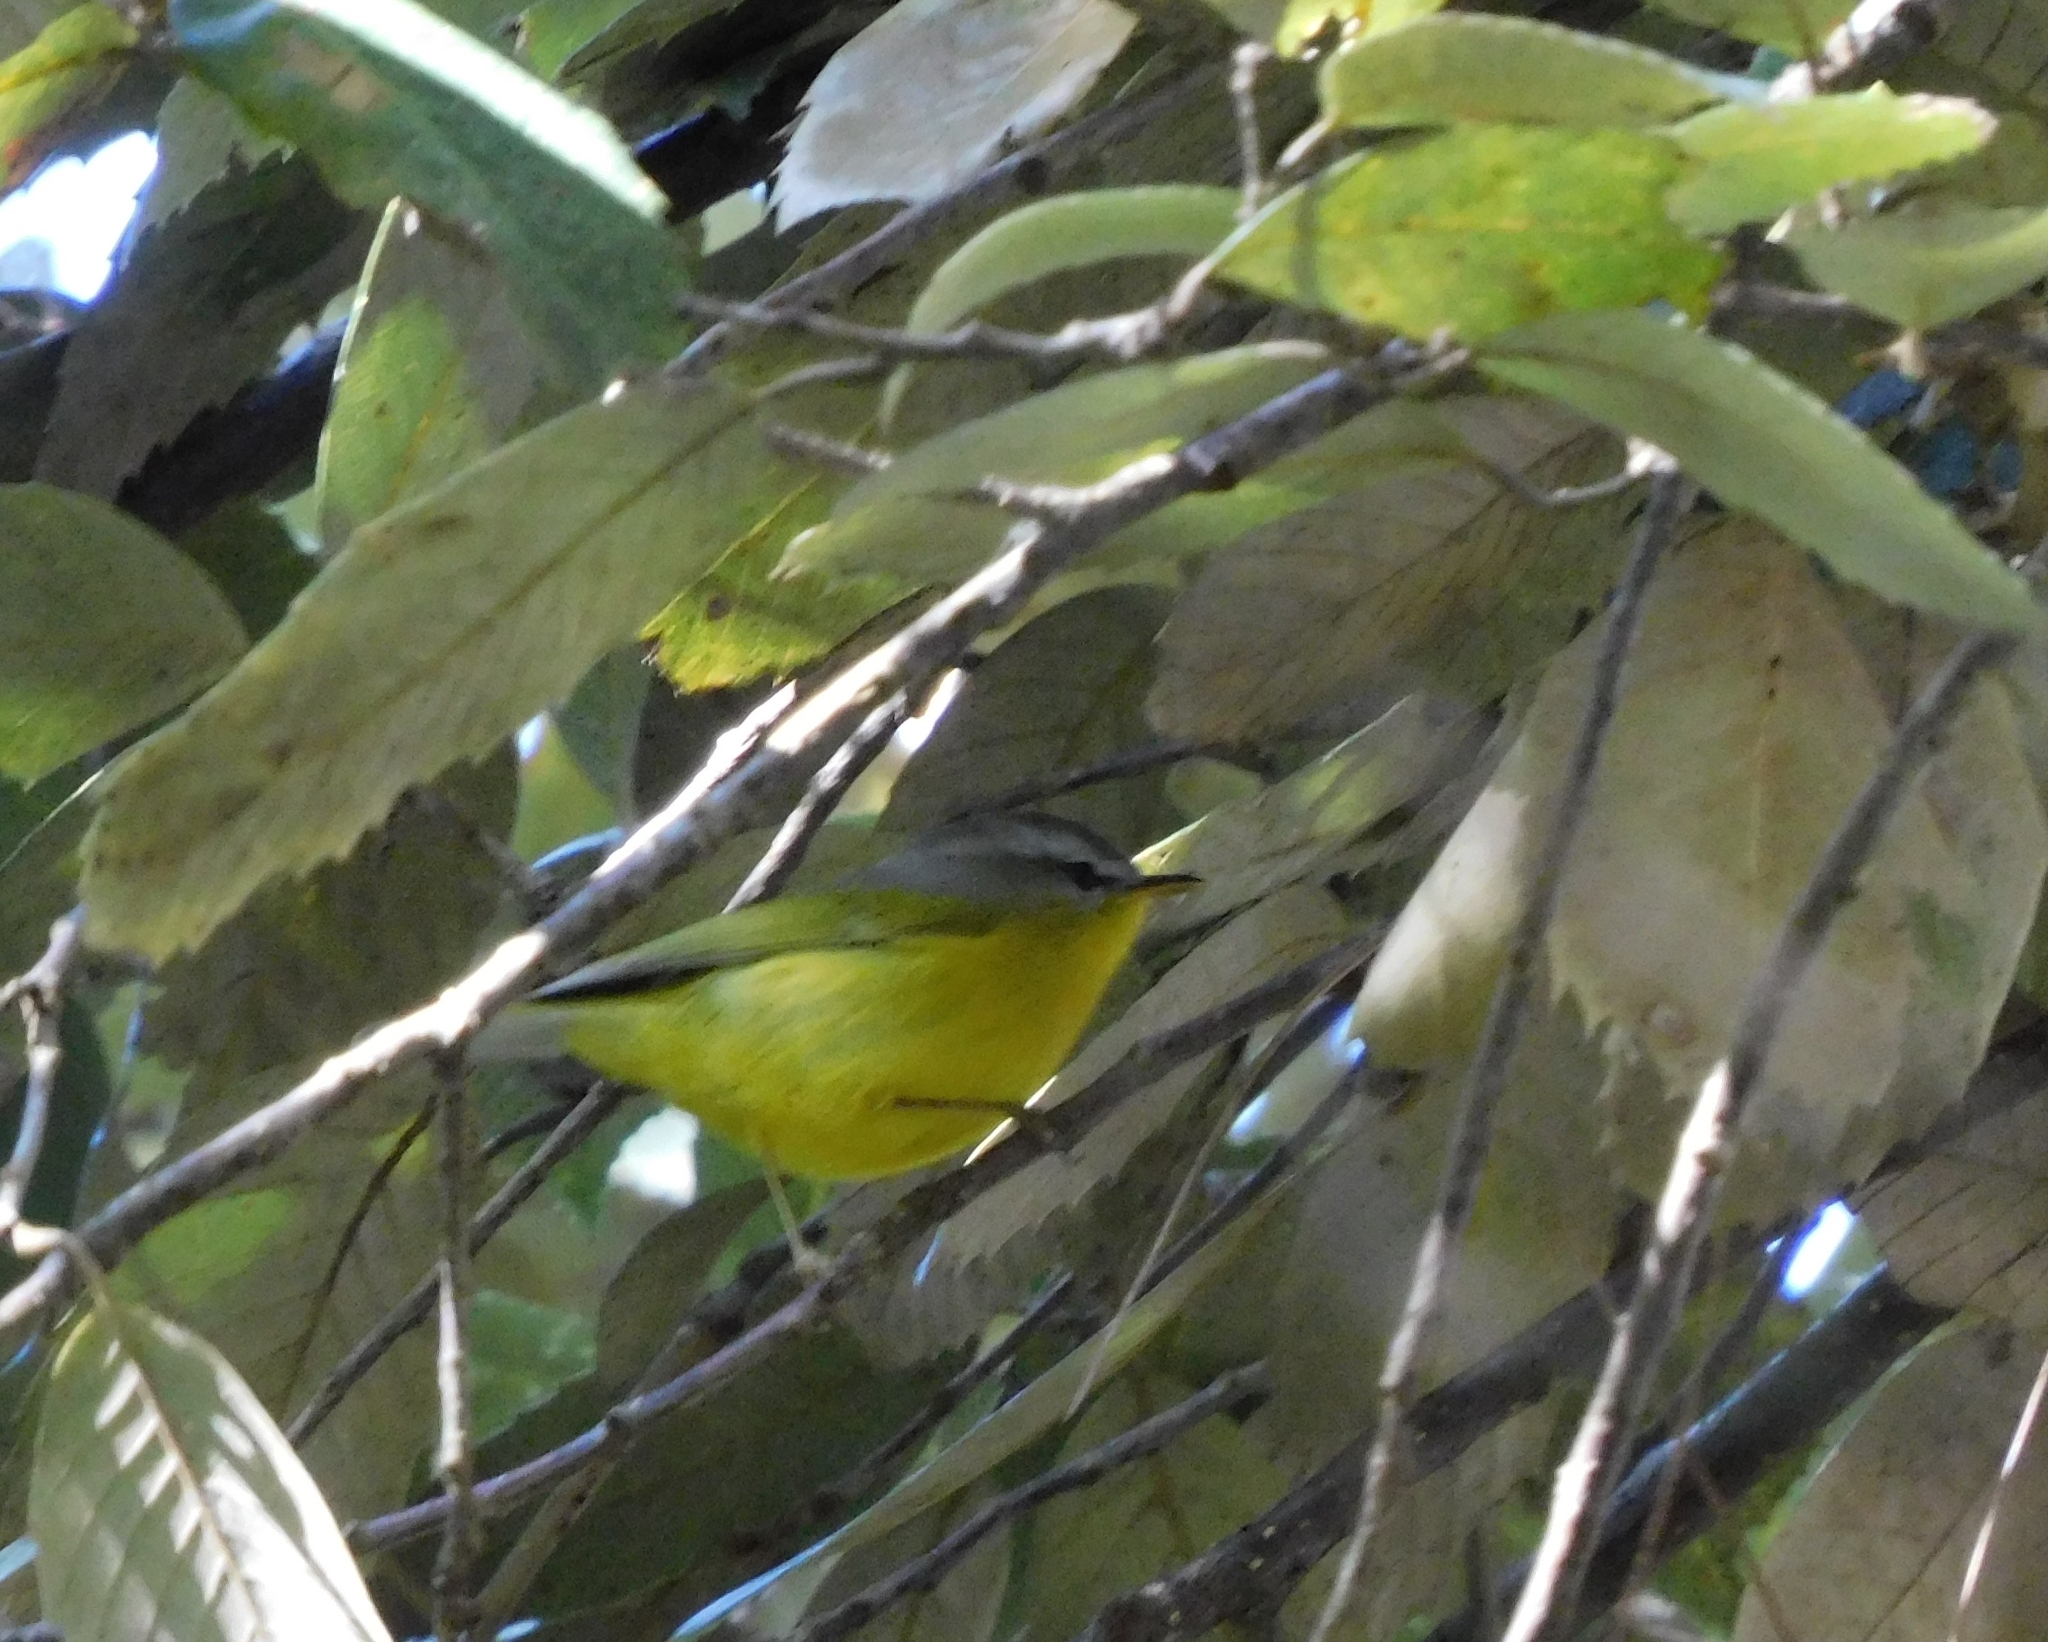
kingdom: Animalia
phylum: Chordata
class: Aves
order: Passeriformes
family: Phylloscopidae
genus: Phylloscopus
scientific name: Phylloscopus xanthoschistos
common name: Grey-hooded warbler
